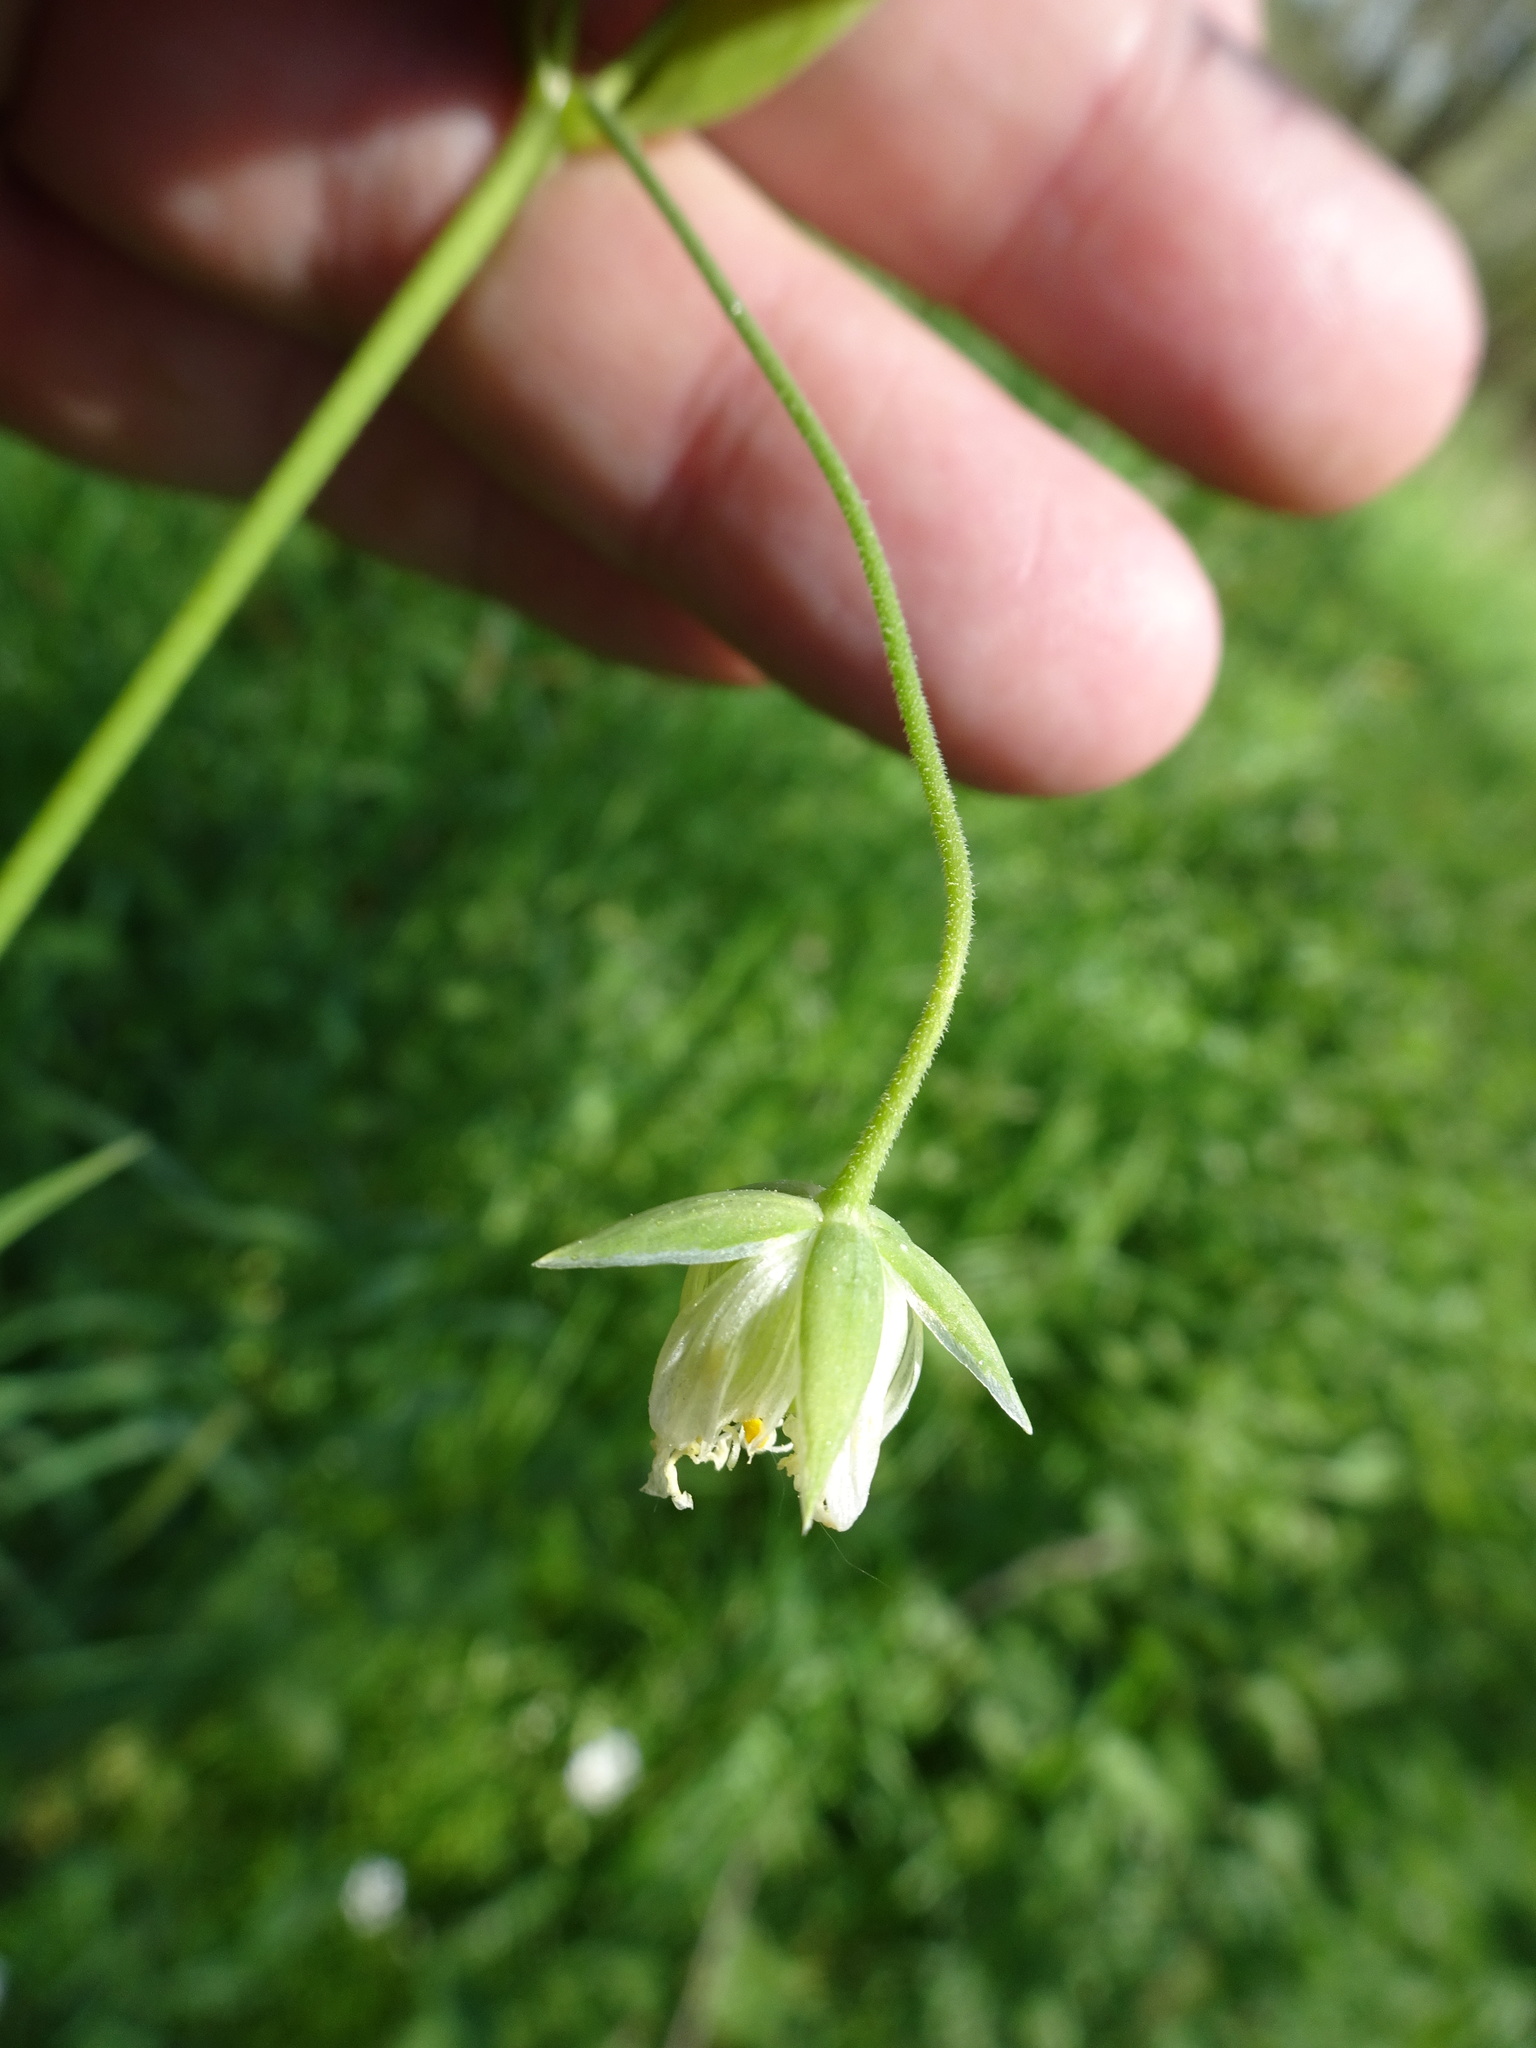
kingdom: Plantae
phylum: Tracheophyta
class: Magnoliopsida
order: Caryophyllales
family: Caryophyllaceae
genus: Rabelera
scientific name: Rabelera holostea
